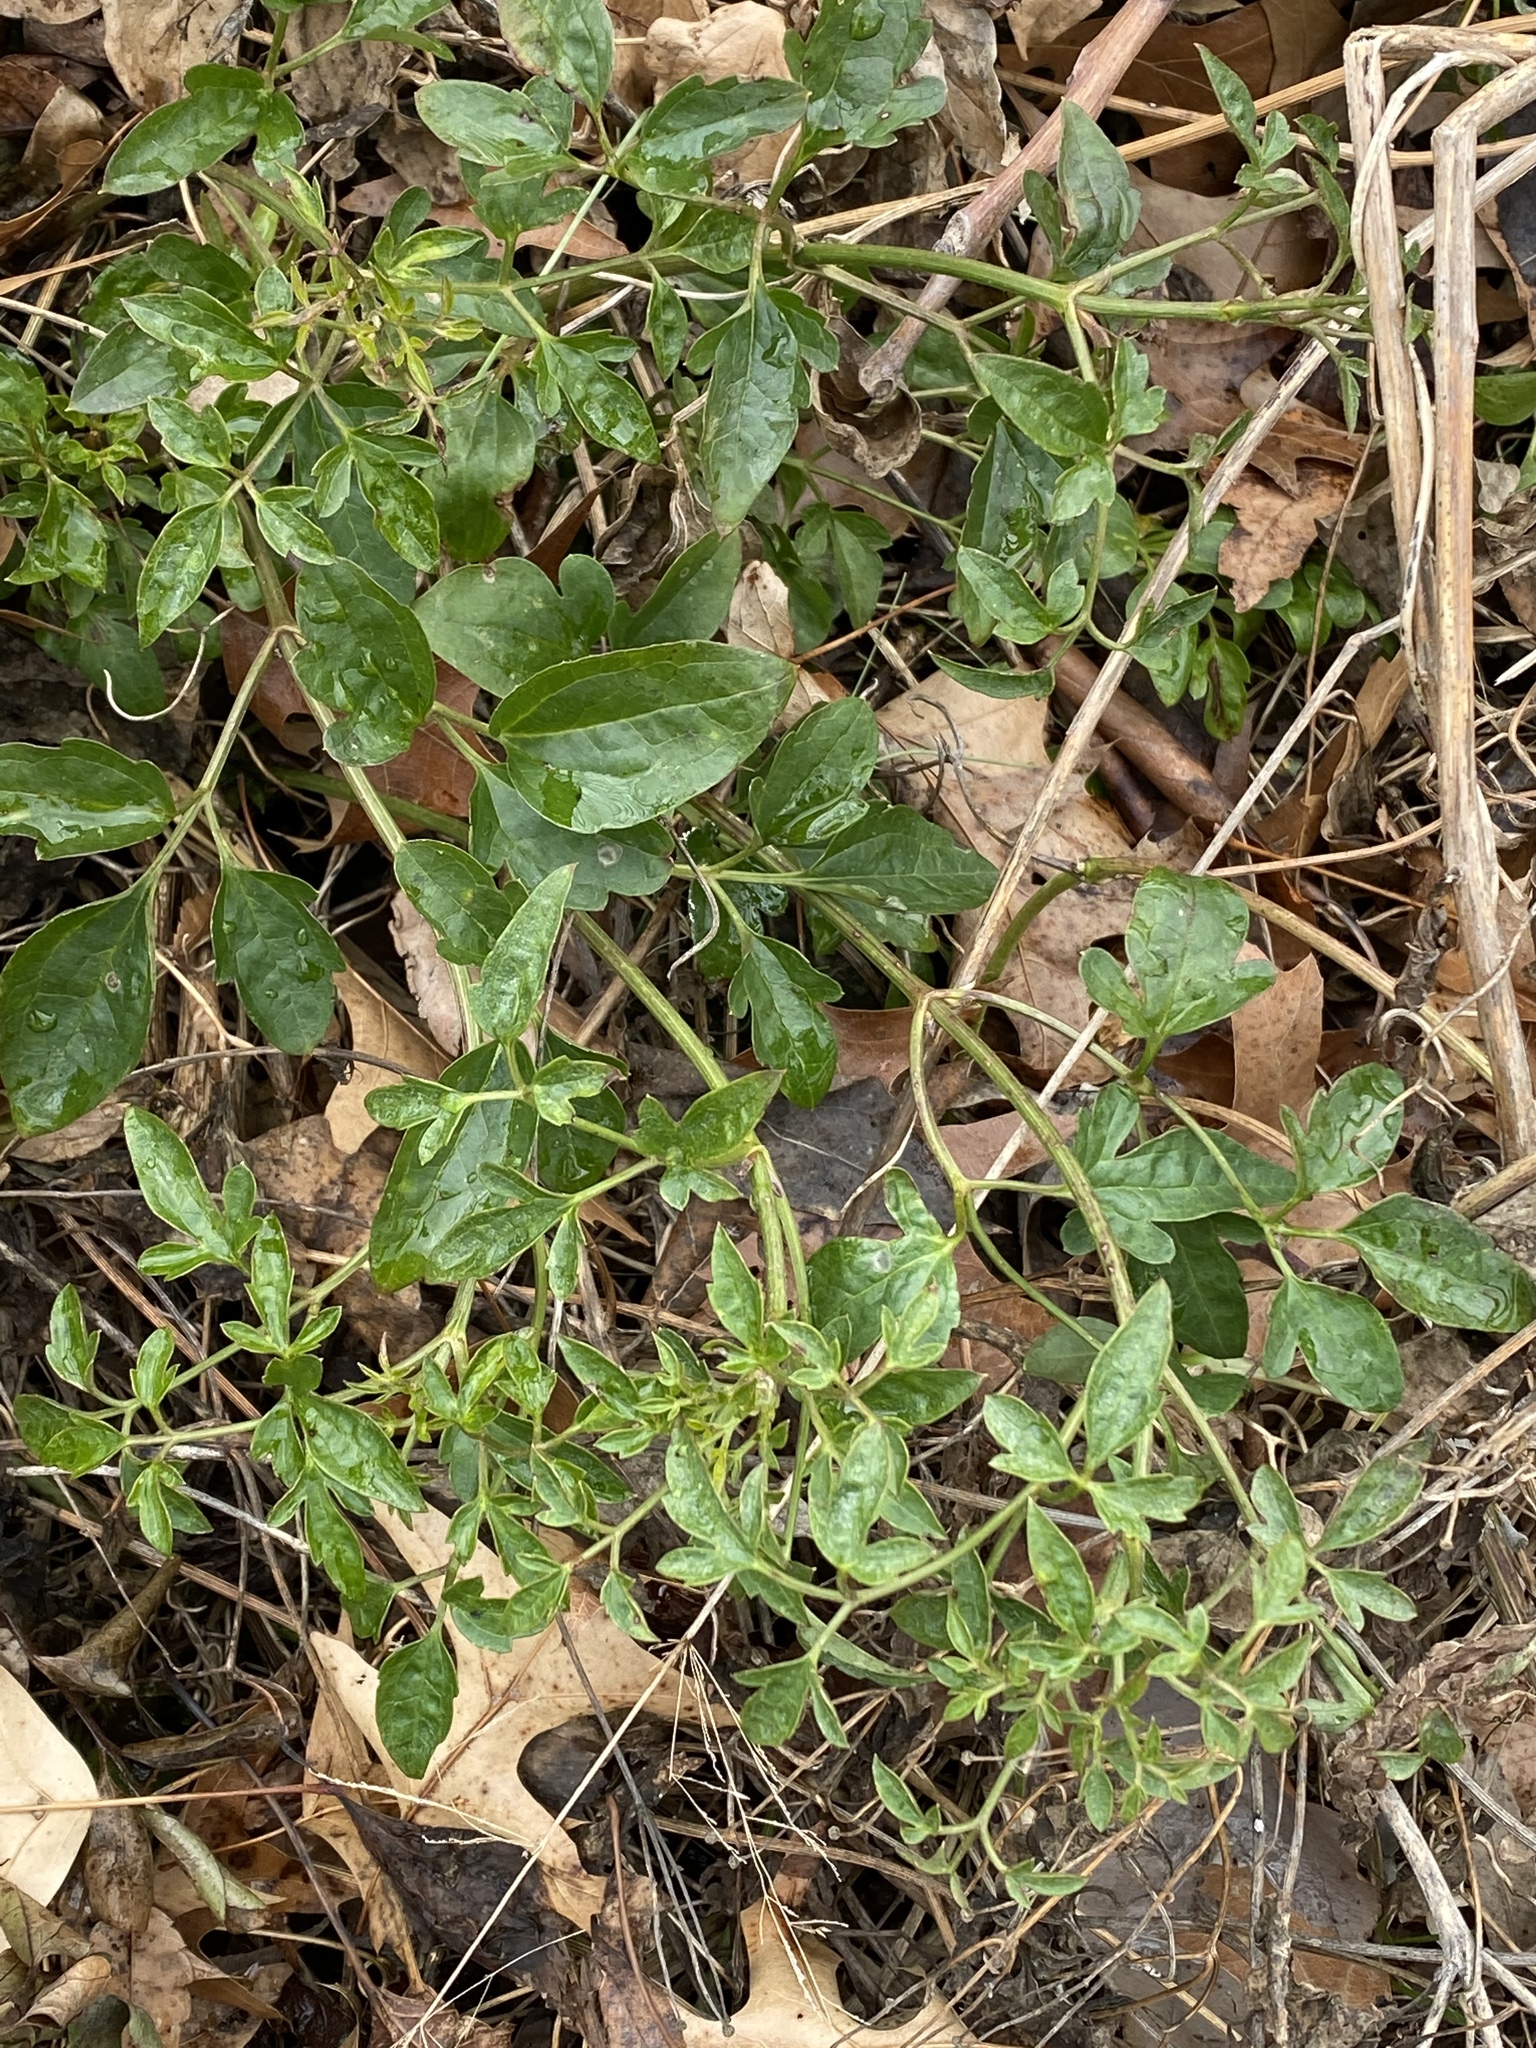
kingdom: Plantae
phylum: Tracheophyta
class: Magnoliopsida
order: Ranunculales
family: Ranunculaceae
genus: Clematis
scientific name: Clematis terniflora
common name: Sweet autumn clematis
